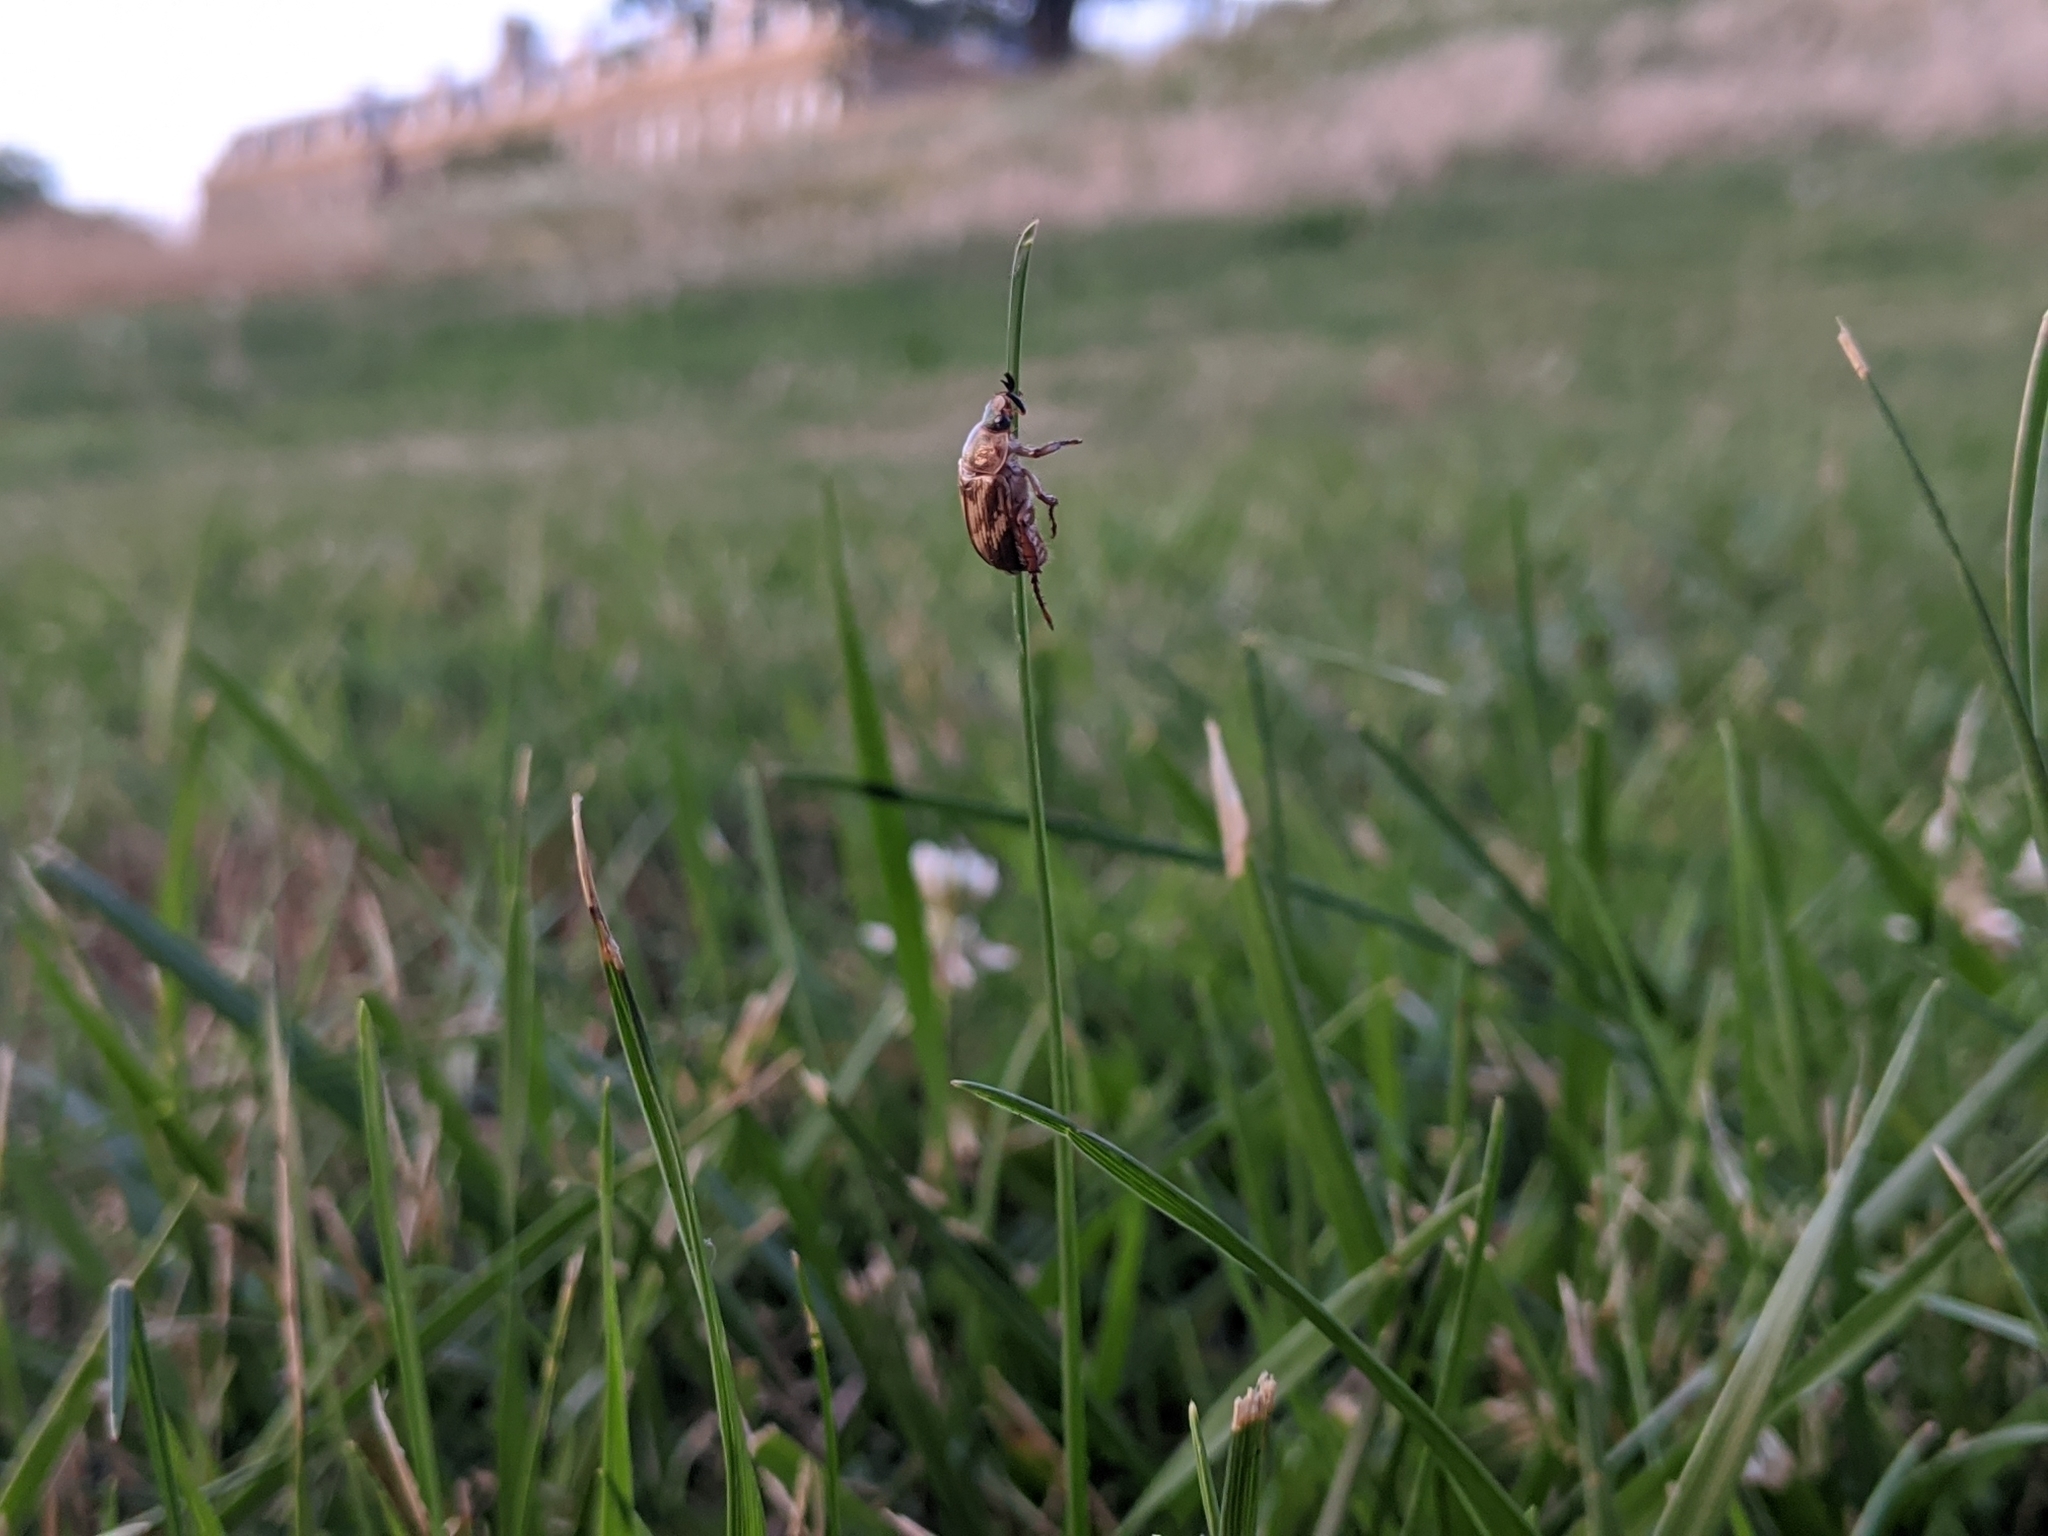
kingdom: Animalia
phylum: Arthropoda
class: Insecta
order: Coleoptera
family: Scarabaeidae
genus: Exomala
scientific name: Exomala orientalis
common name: Oriental beetle
